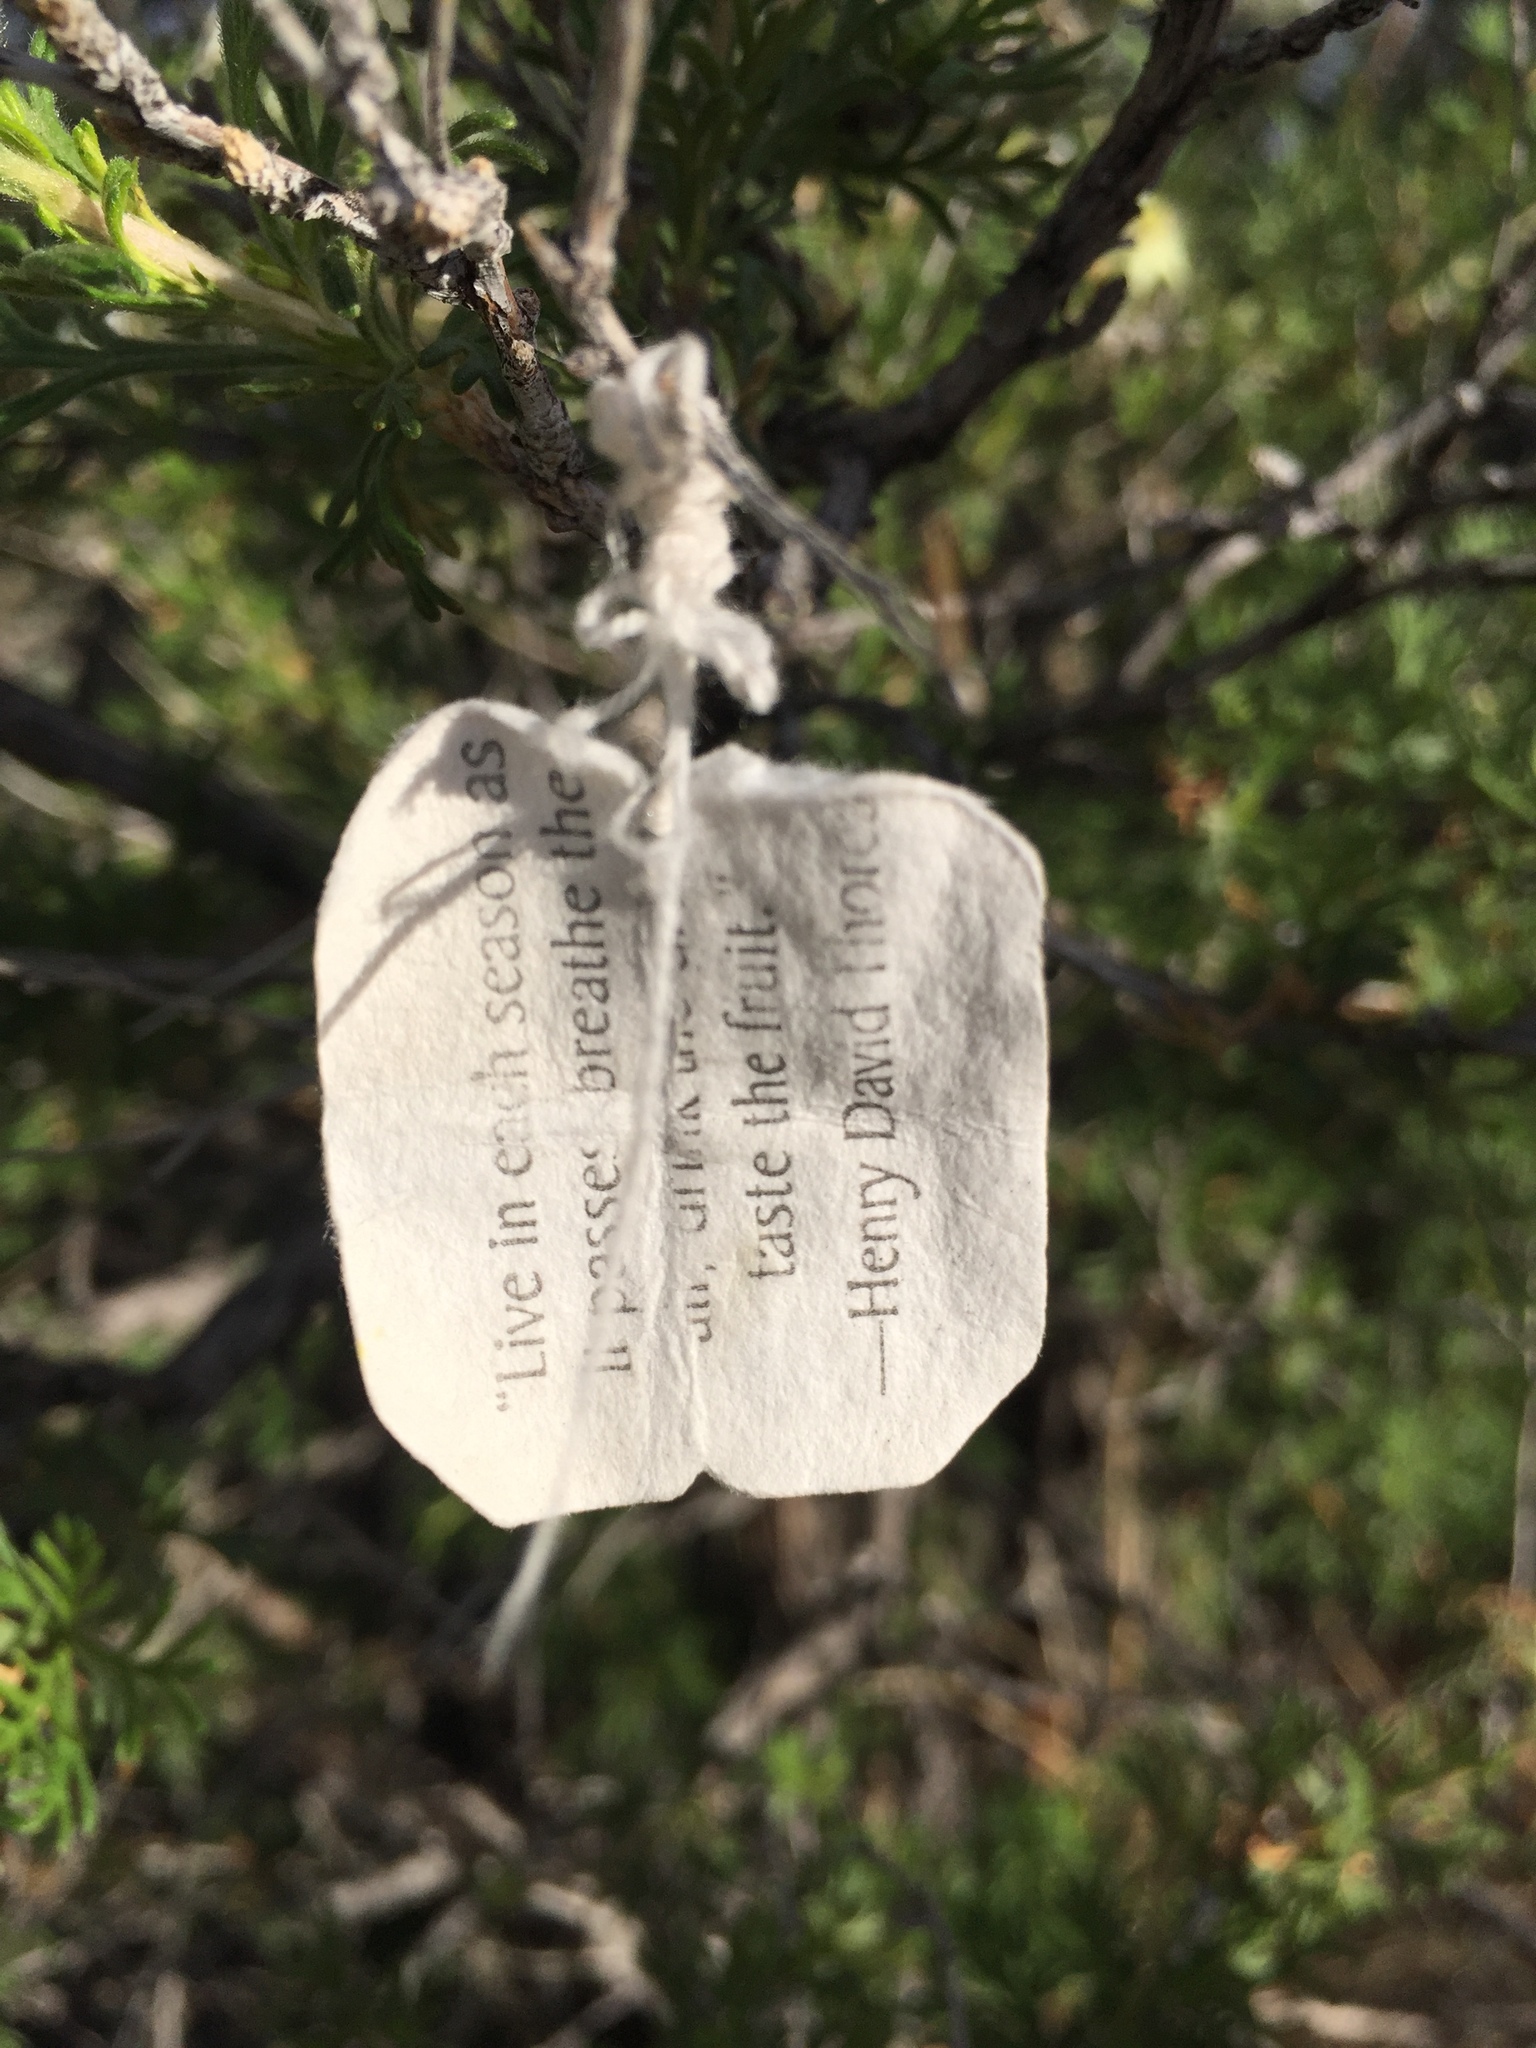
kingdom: Plantae
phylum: Tracheophyta
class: Magnoliopsida
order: Rosales
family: Rosaceae
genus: Fallugia
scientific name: Fallugia paradoxa
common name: Apache-plume
